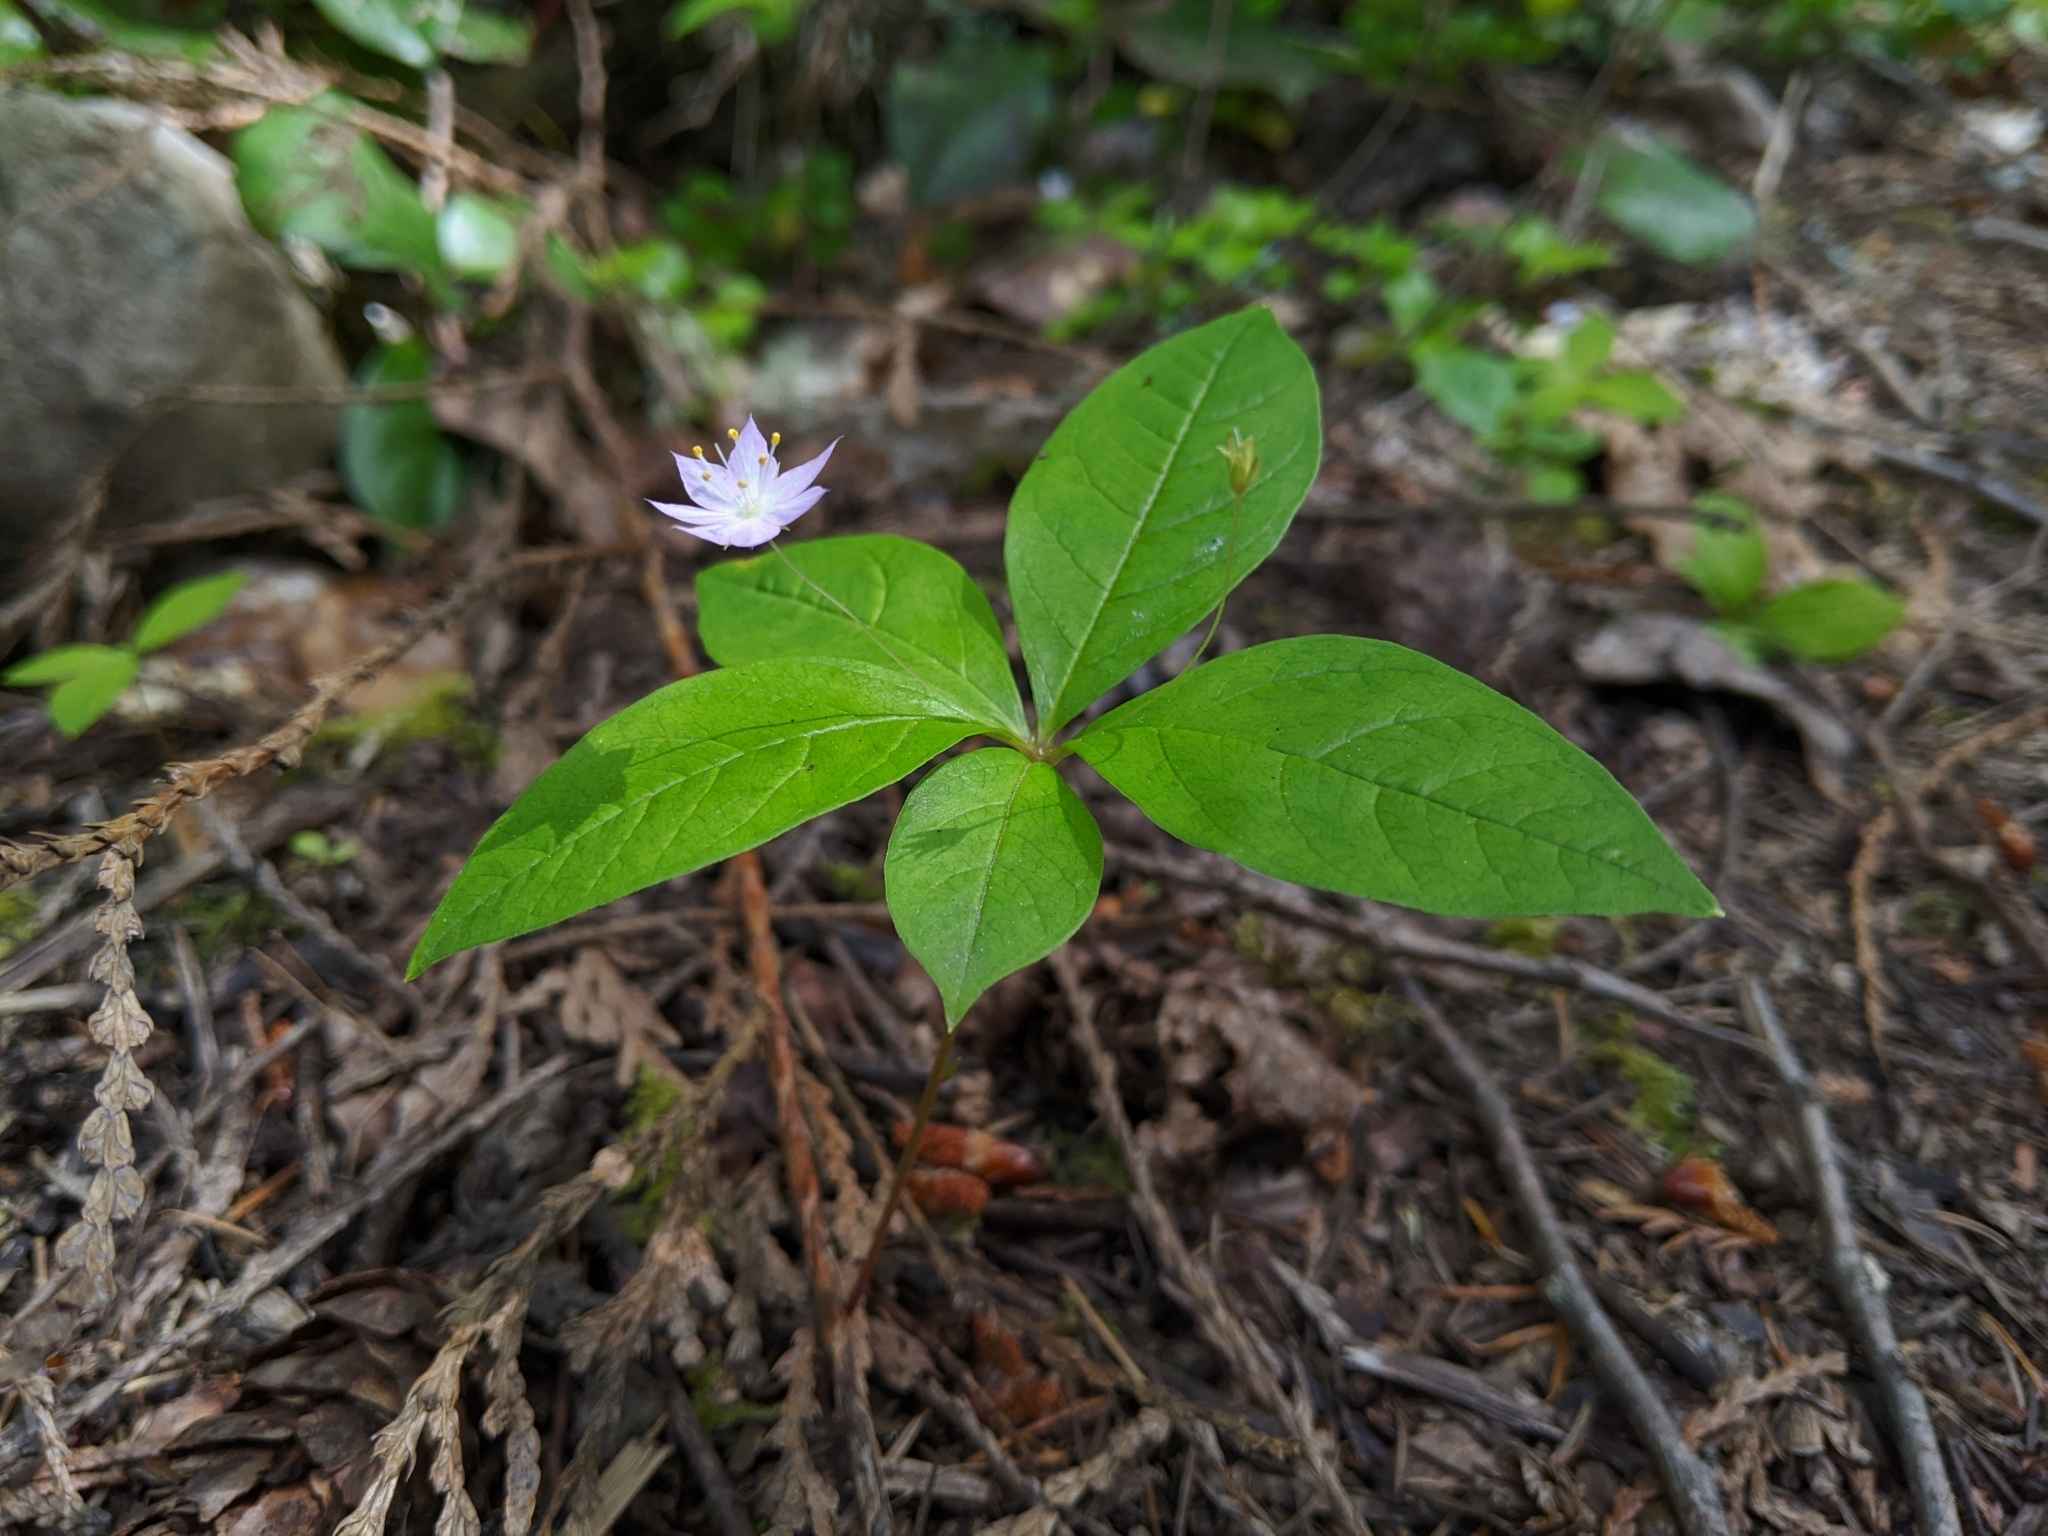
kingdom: Plantae
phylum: Tracheophyta
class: Magnoliopsida
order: Ericales
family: Primulaceae
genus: Lysimachia
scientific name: Lysimachia latifolia
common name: Pacific starflower
